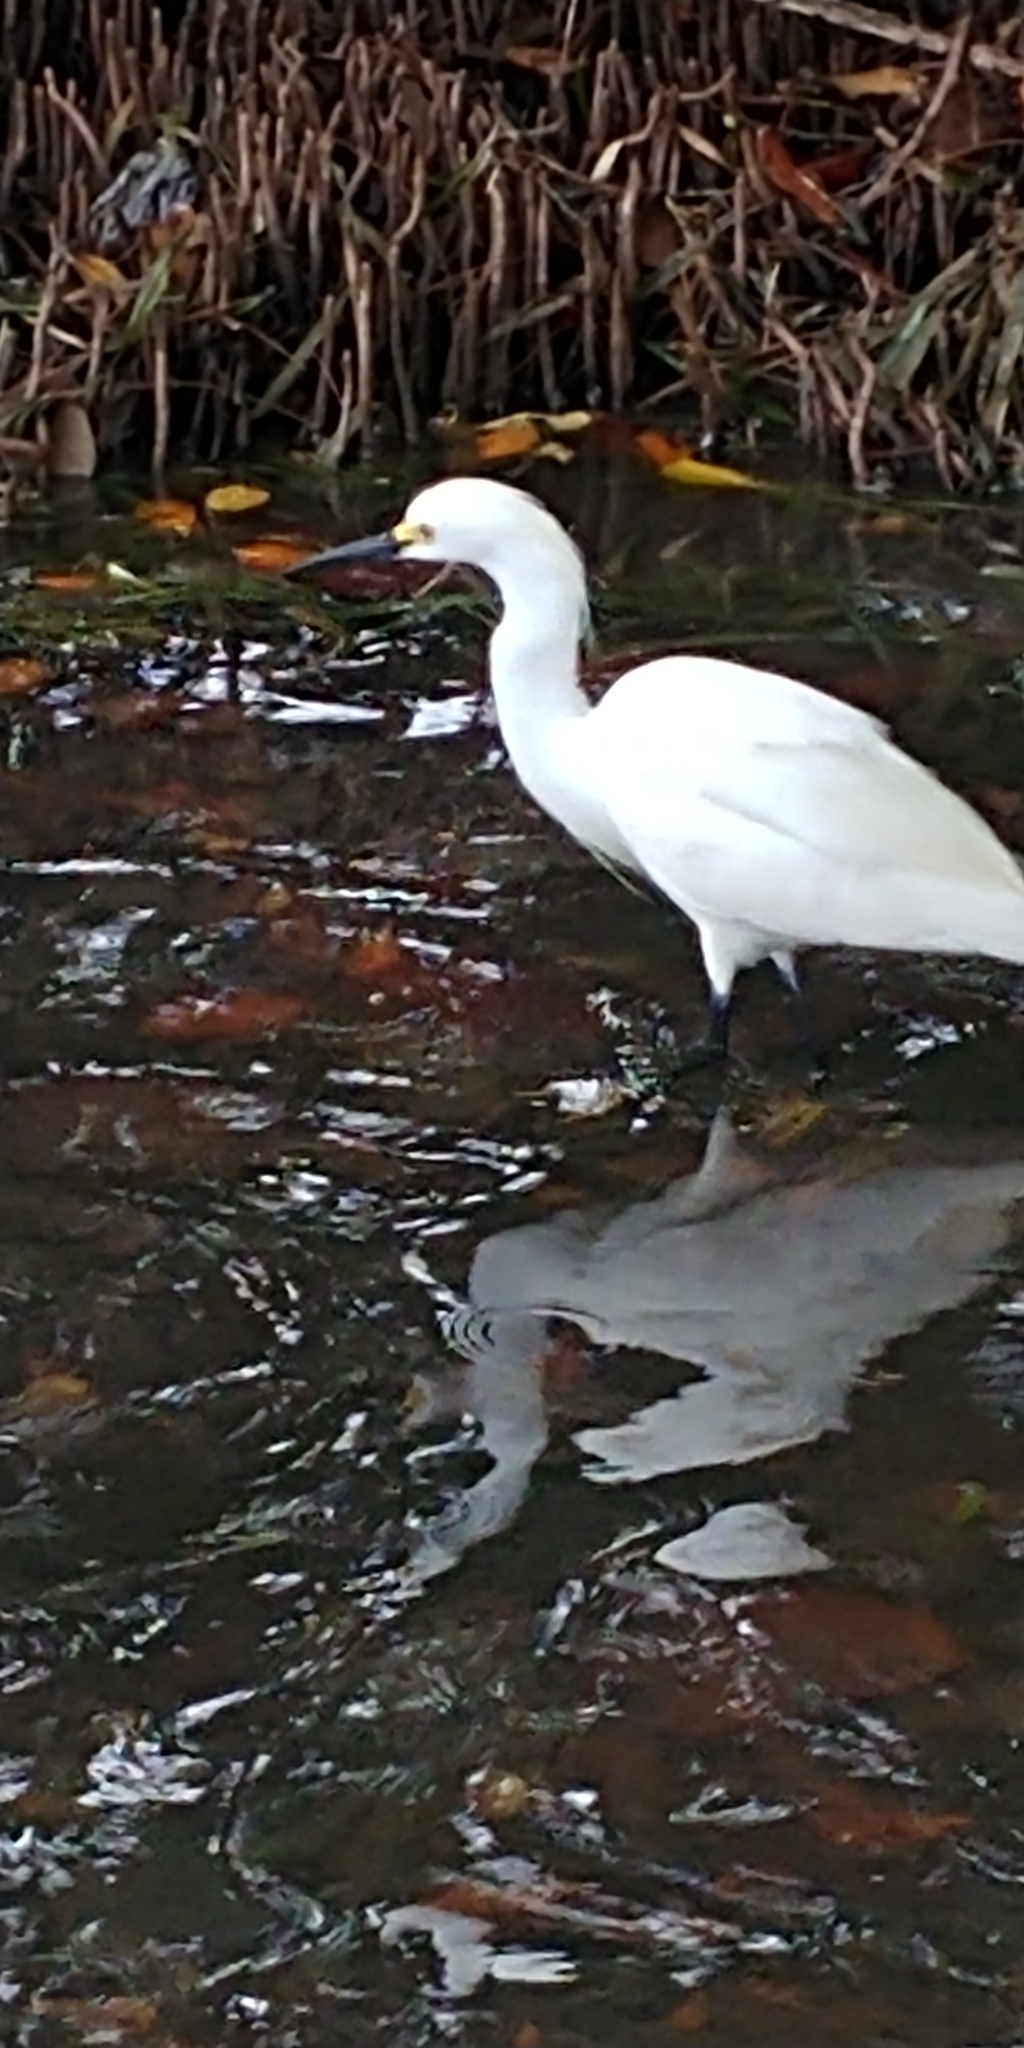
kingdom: Animalia
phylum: Chordata
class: Aves
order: Pelecaniformes
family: Ardeidae
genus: Egretta
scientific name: Egretta thula
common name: Snowy egret
